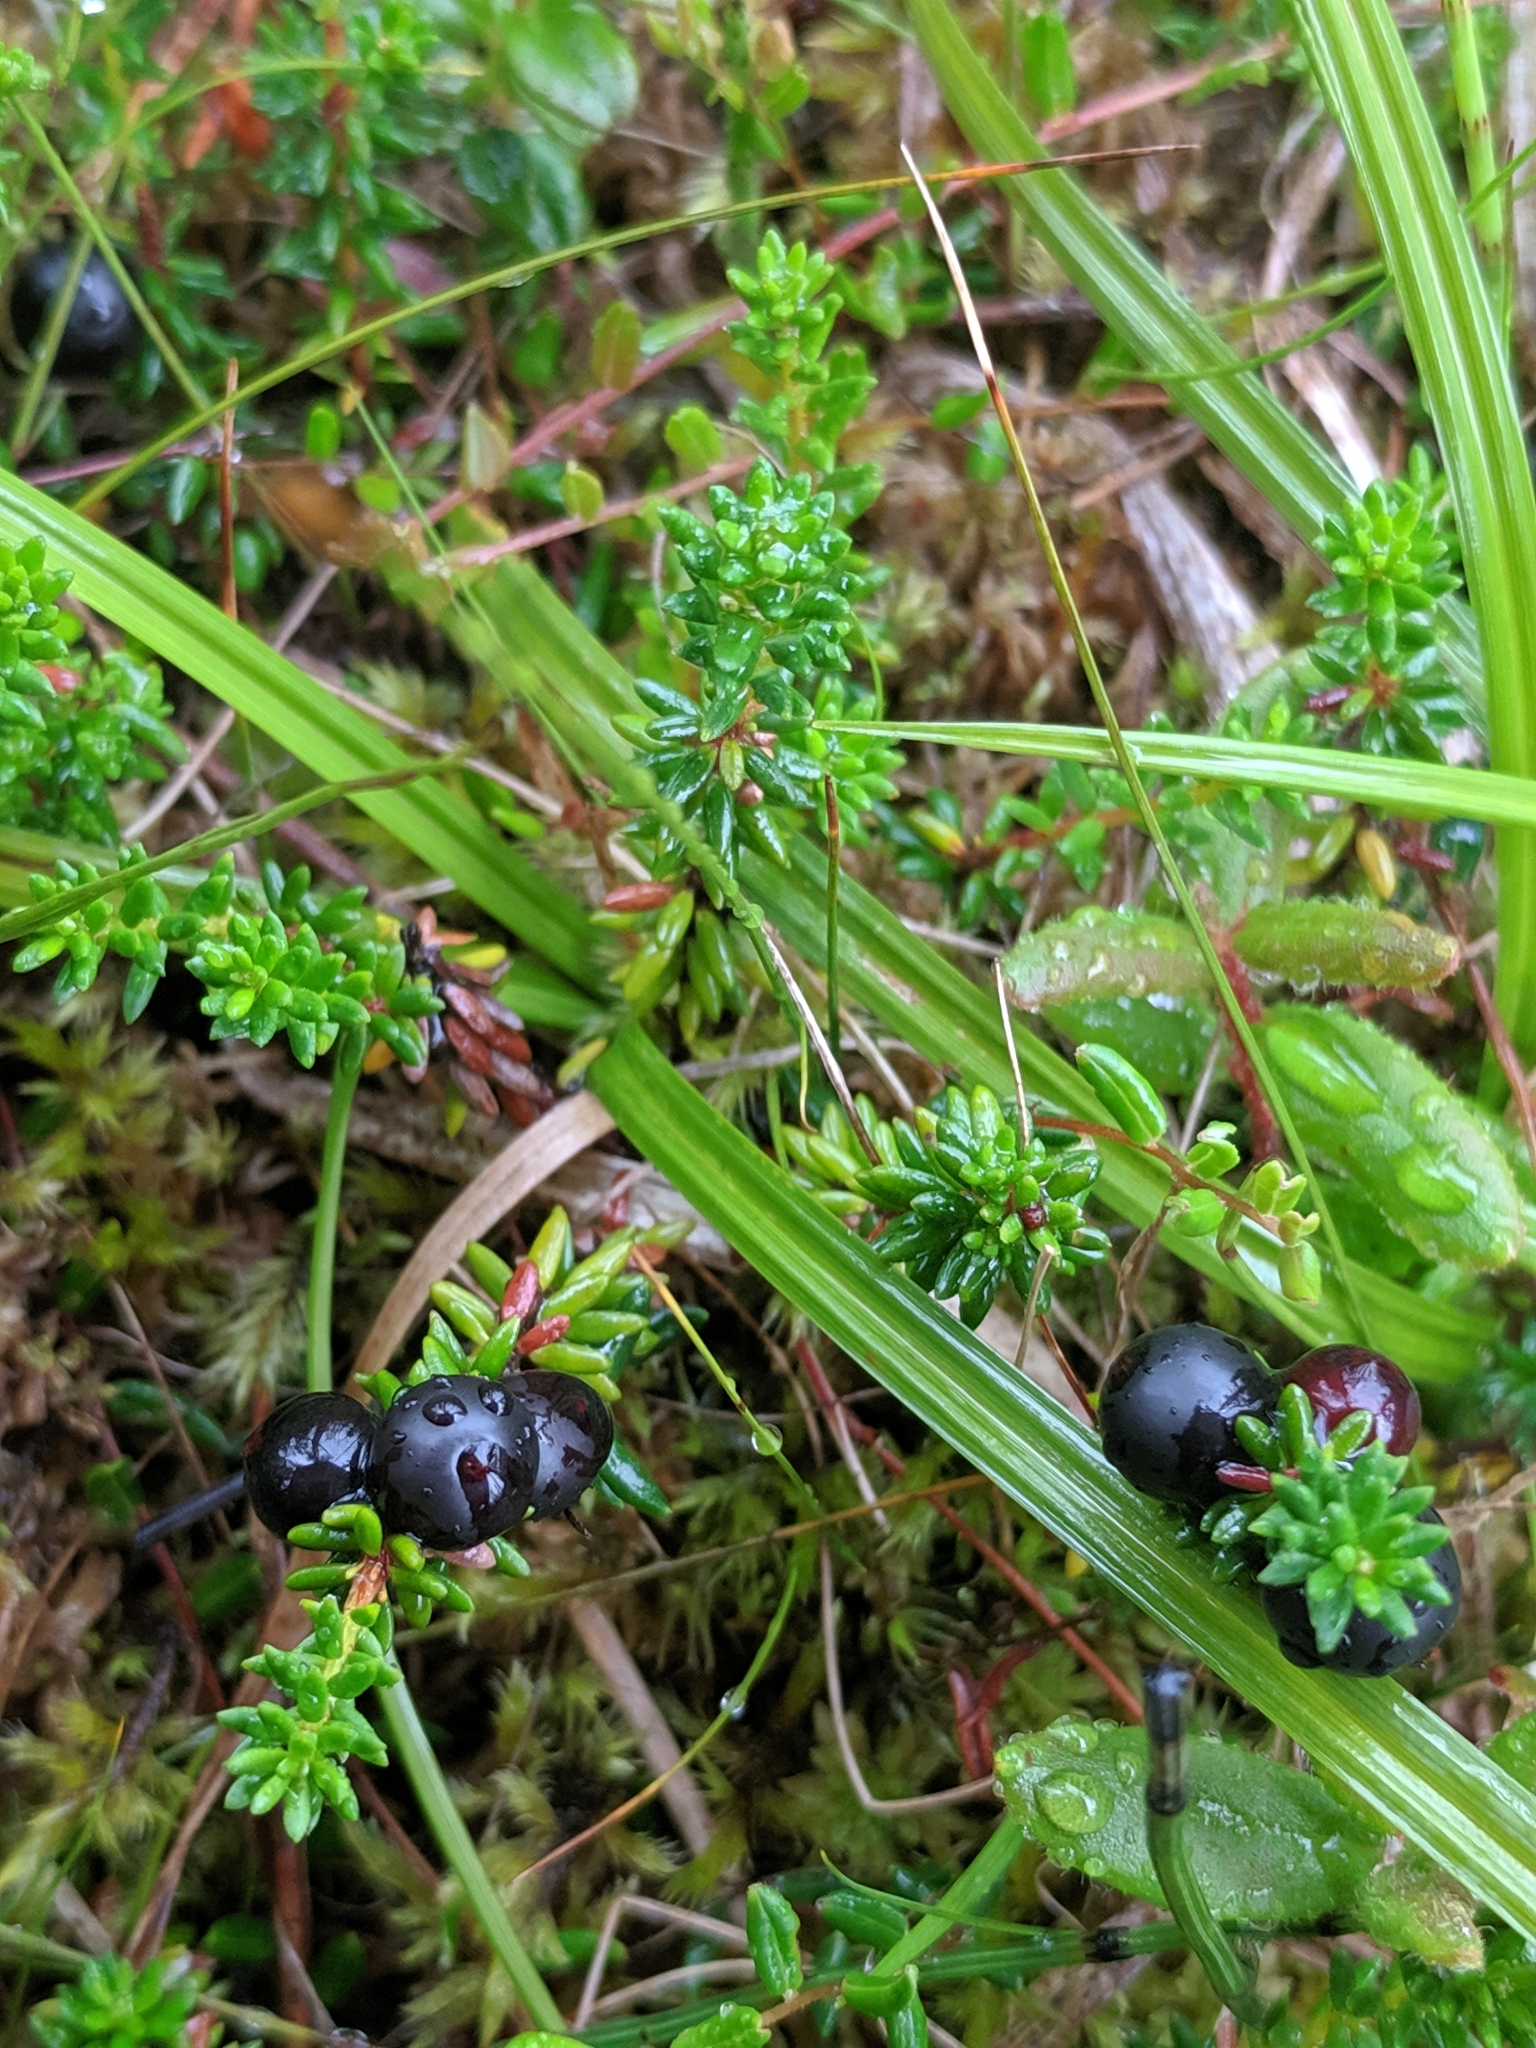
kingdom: Plantae
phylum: Tracheophyta
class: Magnoliopsida
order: Ericales
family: Ericaceae
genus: Empetrum
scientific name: Empetrum nigrum
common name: Black crowberry
